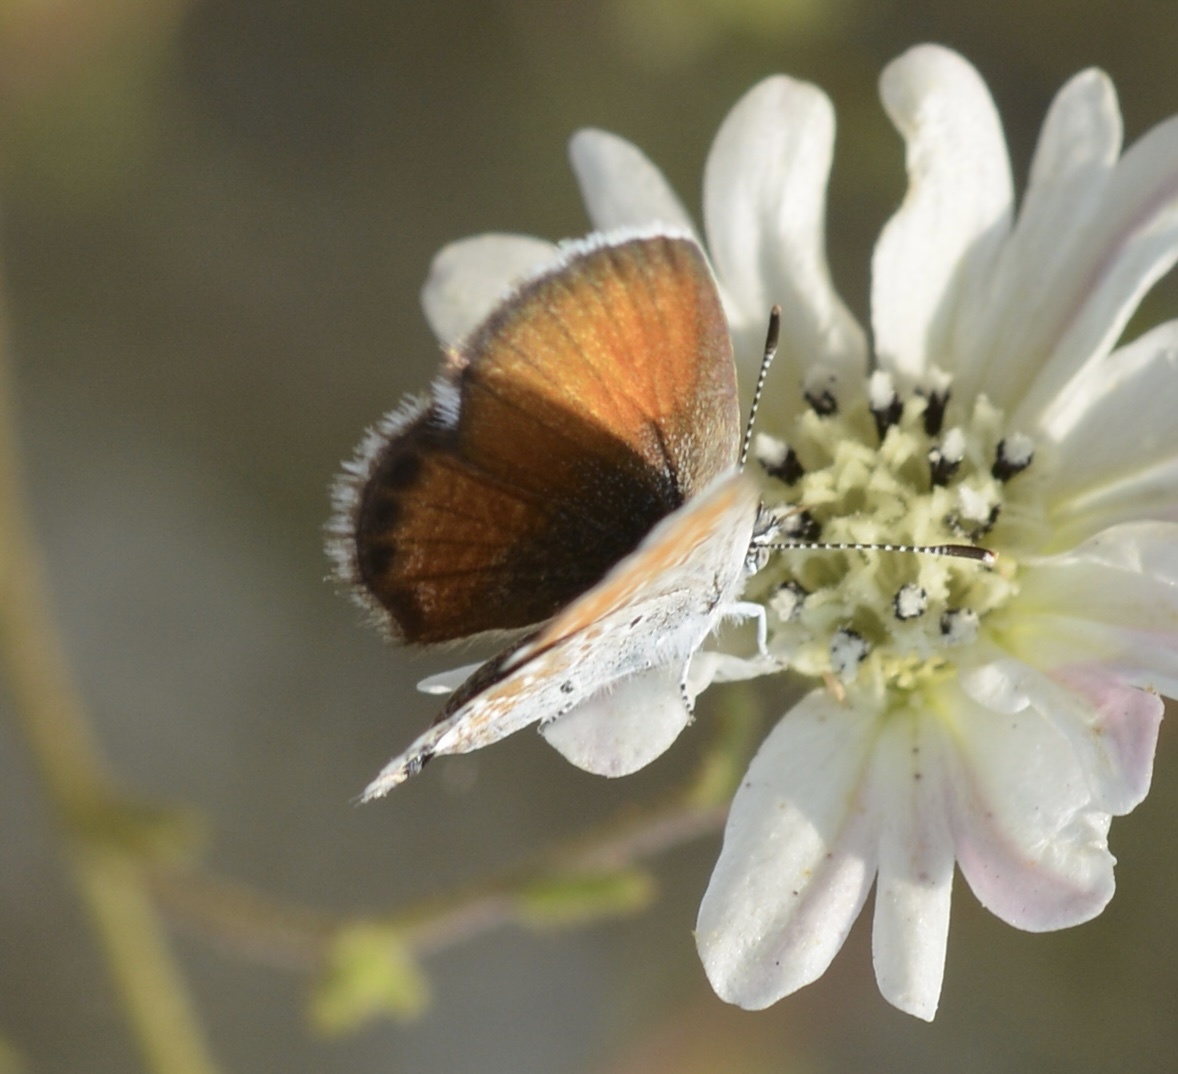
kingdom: Animalia
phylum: Arthropoda
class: Insecta
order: Lepidoptera
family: Lycaenidae
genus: Brephidium
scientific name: Brephidium exilis
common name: Pygmy blue
